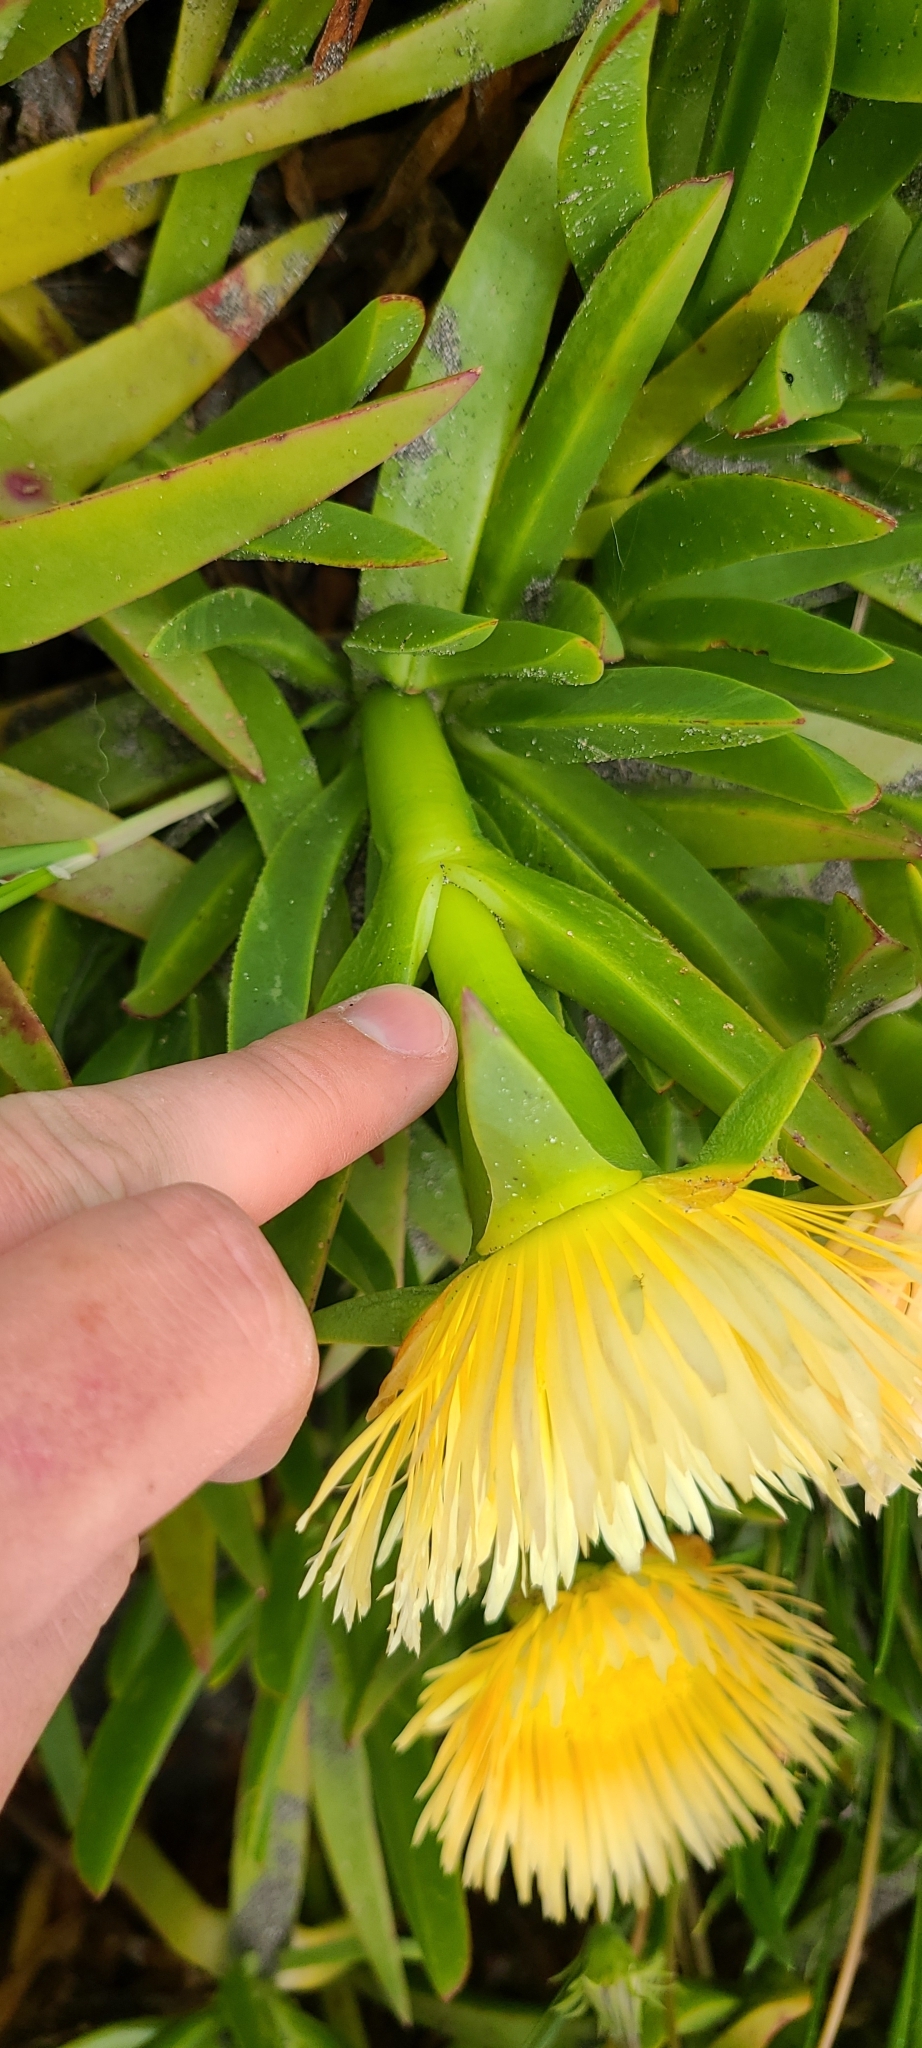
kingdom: Plantae
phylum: Tracheophyta
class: Magnoliopsida
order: Caryophyllales
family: Aizoaceae
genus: Carpobrotus
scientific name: Carpobrotus edulis
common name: Hottentot-fig
